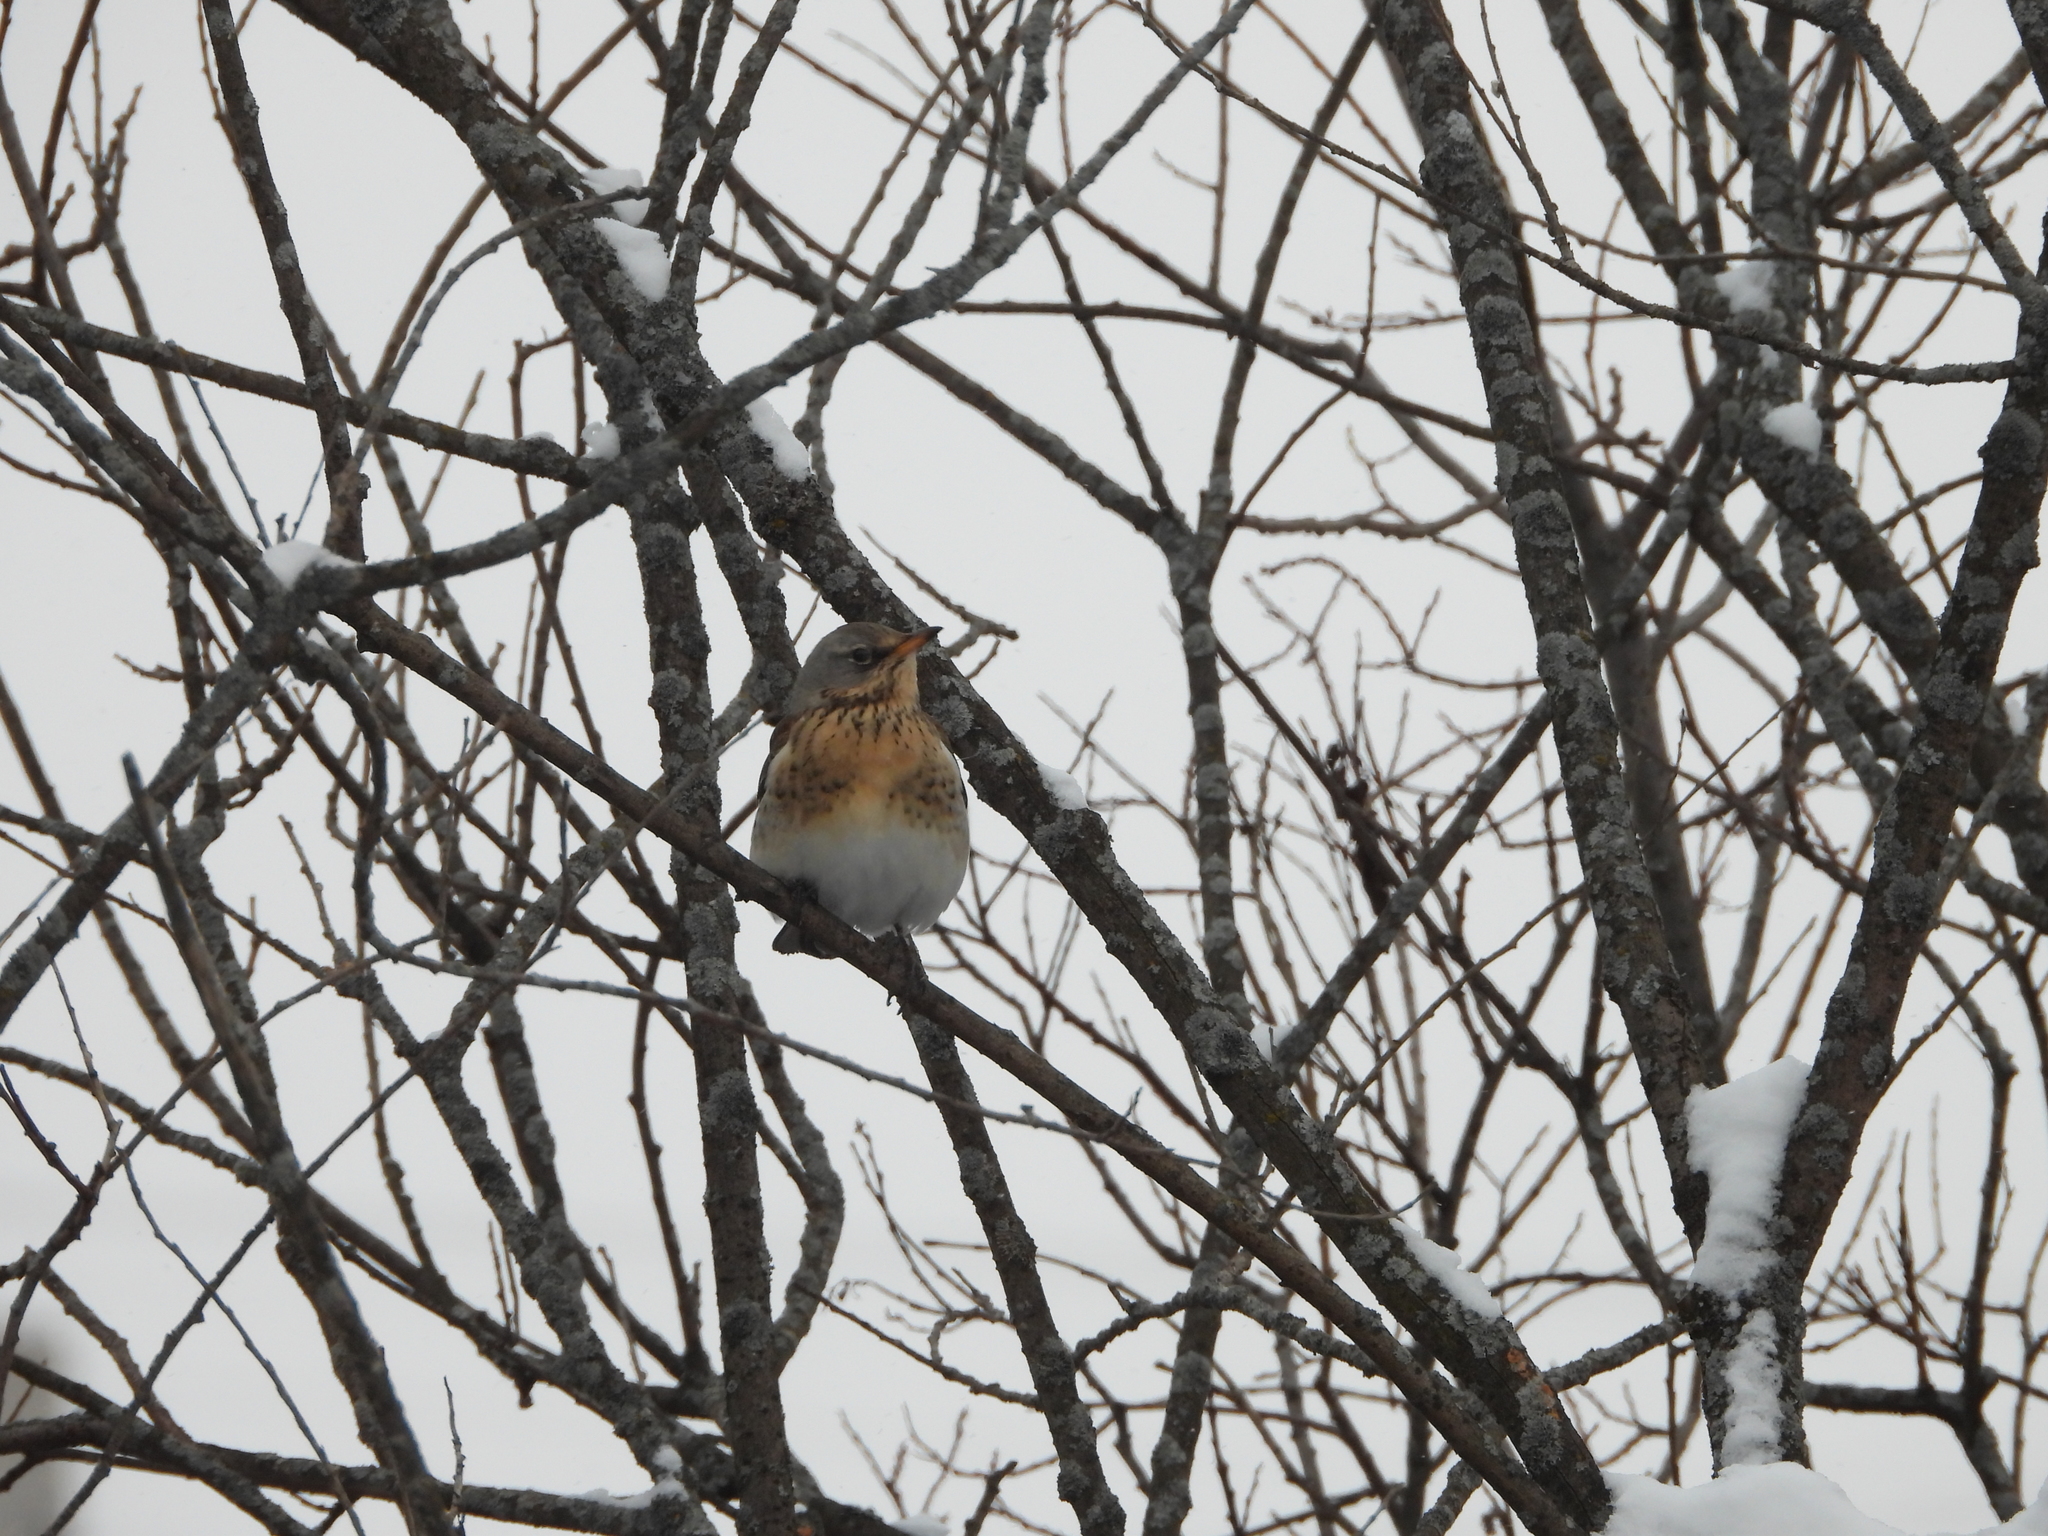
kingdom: Animalia
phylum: Chordata
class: Aves
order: Passeriformes
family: Turdidae
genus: Turdus
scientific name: Turdus pilaris
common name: Fieldfare
